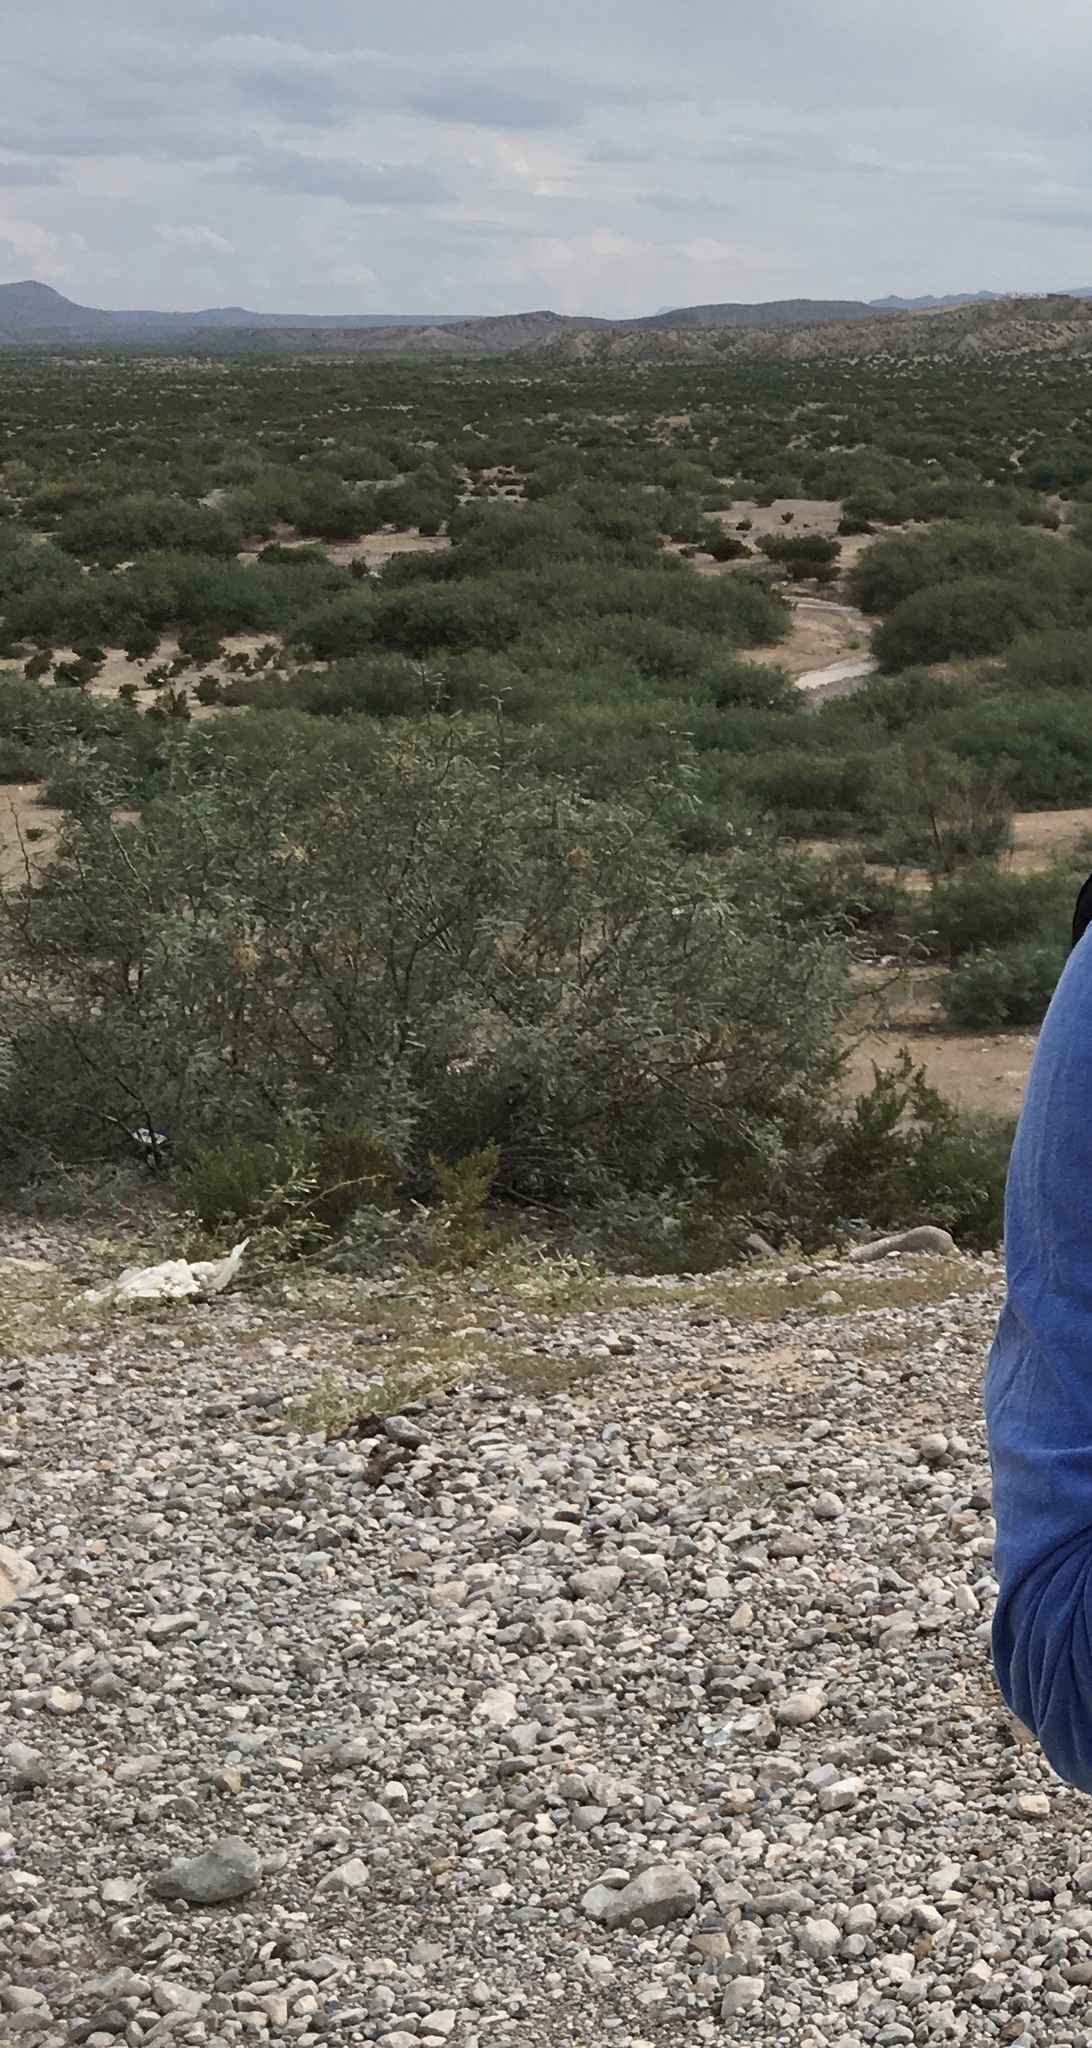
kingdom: Plantae
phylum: Tracheophyta
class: Magnoliopsida
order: Zygophyllales
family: Zygophyllaceae
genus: Larrea
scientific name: Larrea tridentata
